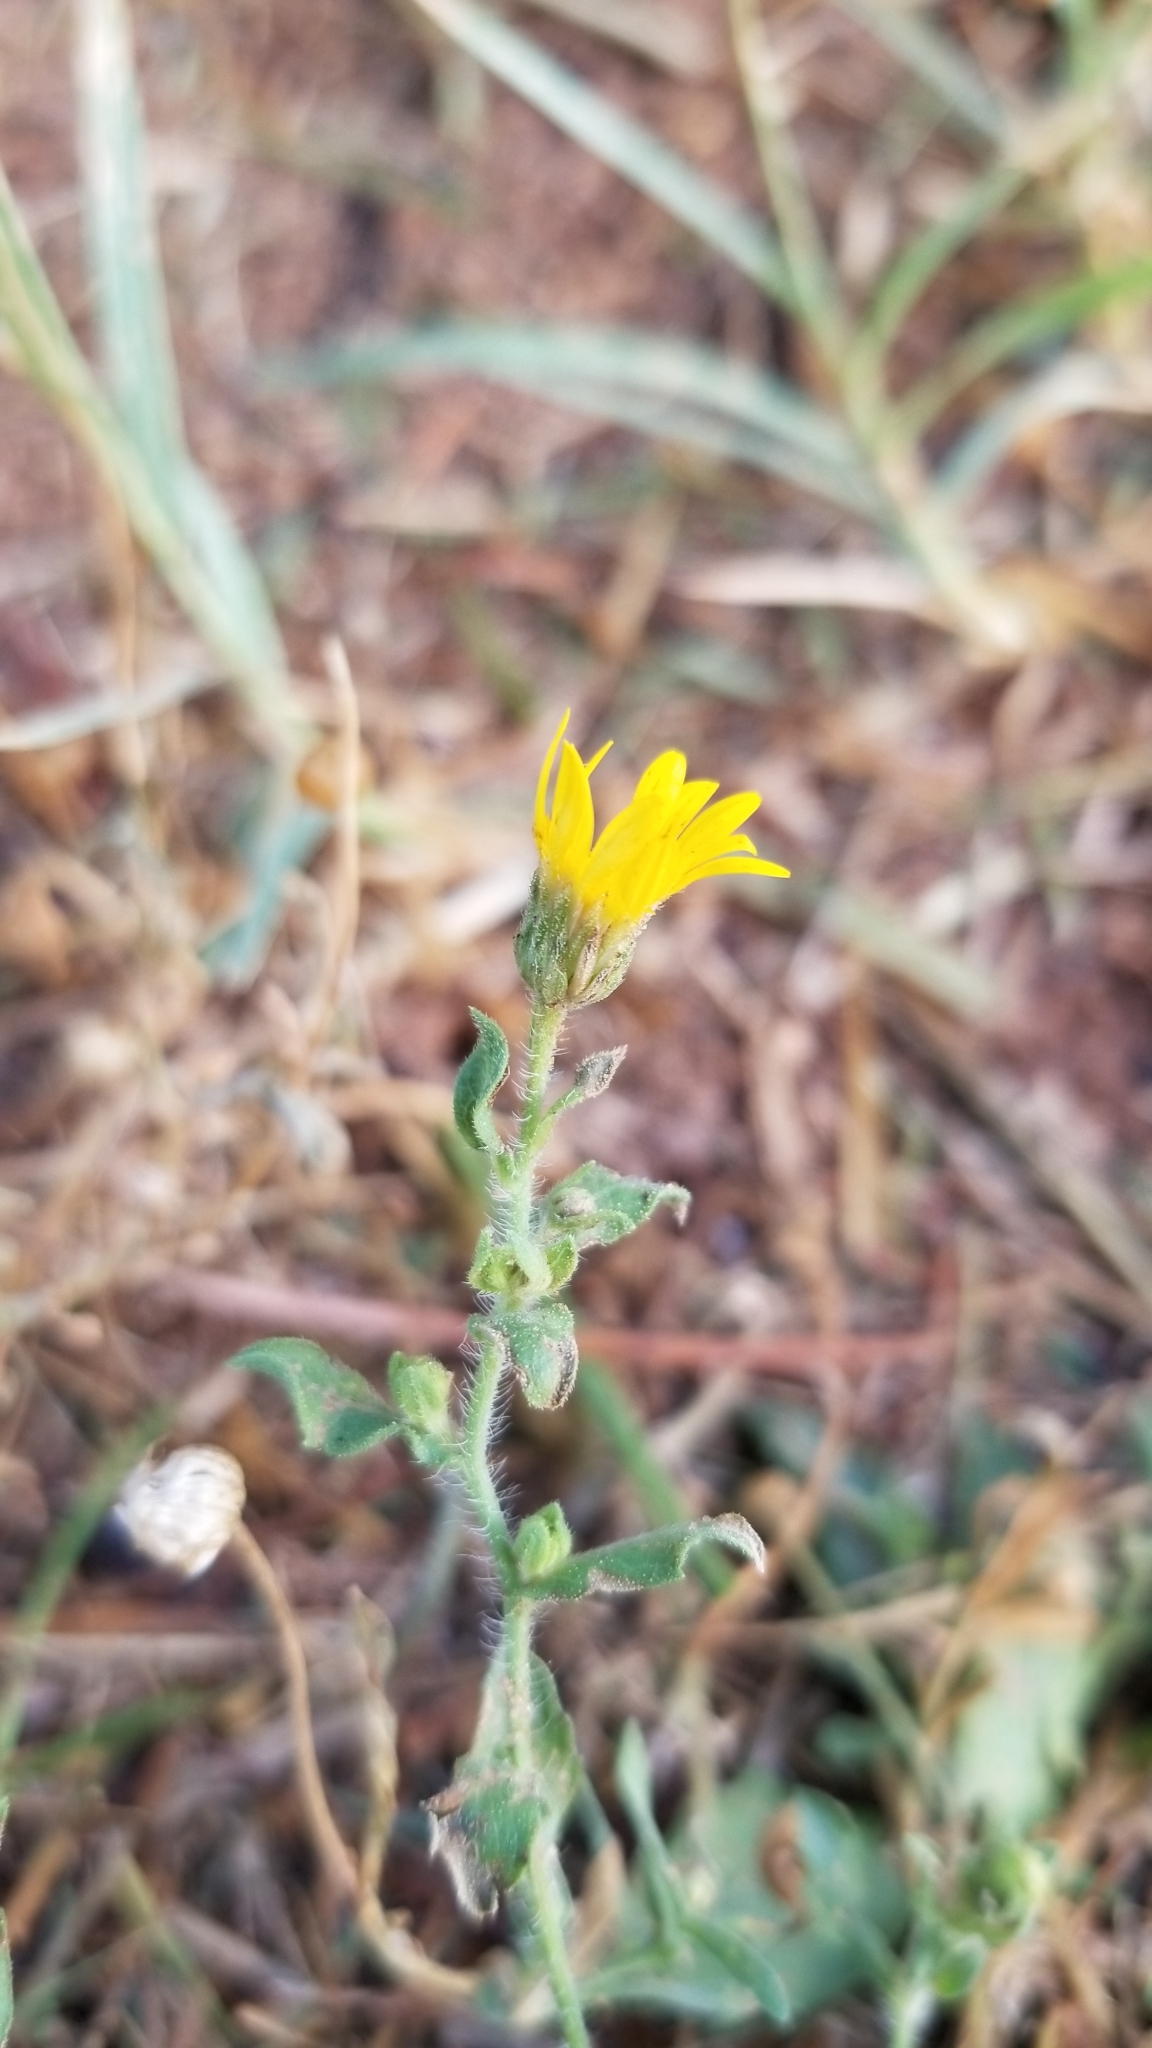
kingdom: Plantae
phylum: Tracheophyta
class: Magnoliopsida
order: Asterales
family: Asteraceae
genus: Heterotheca
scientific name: Heterotheca subaxillaris
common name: Camphorweed
